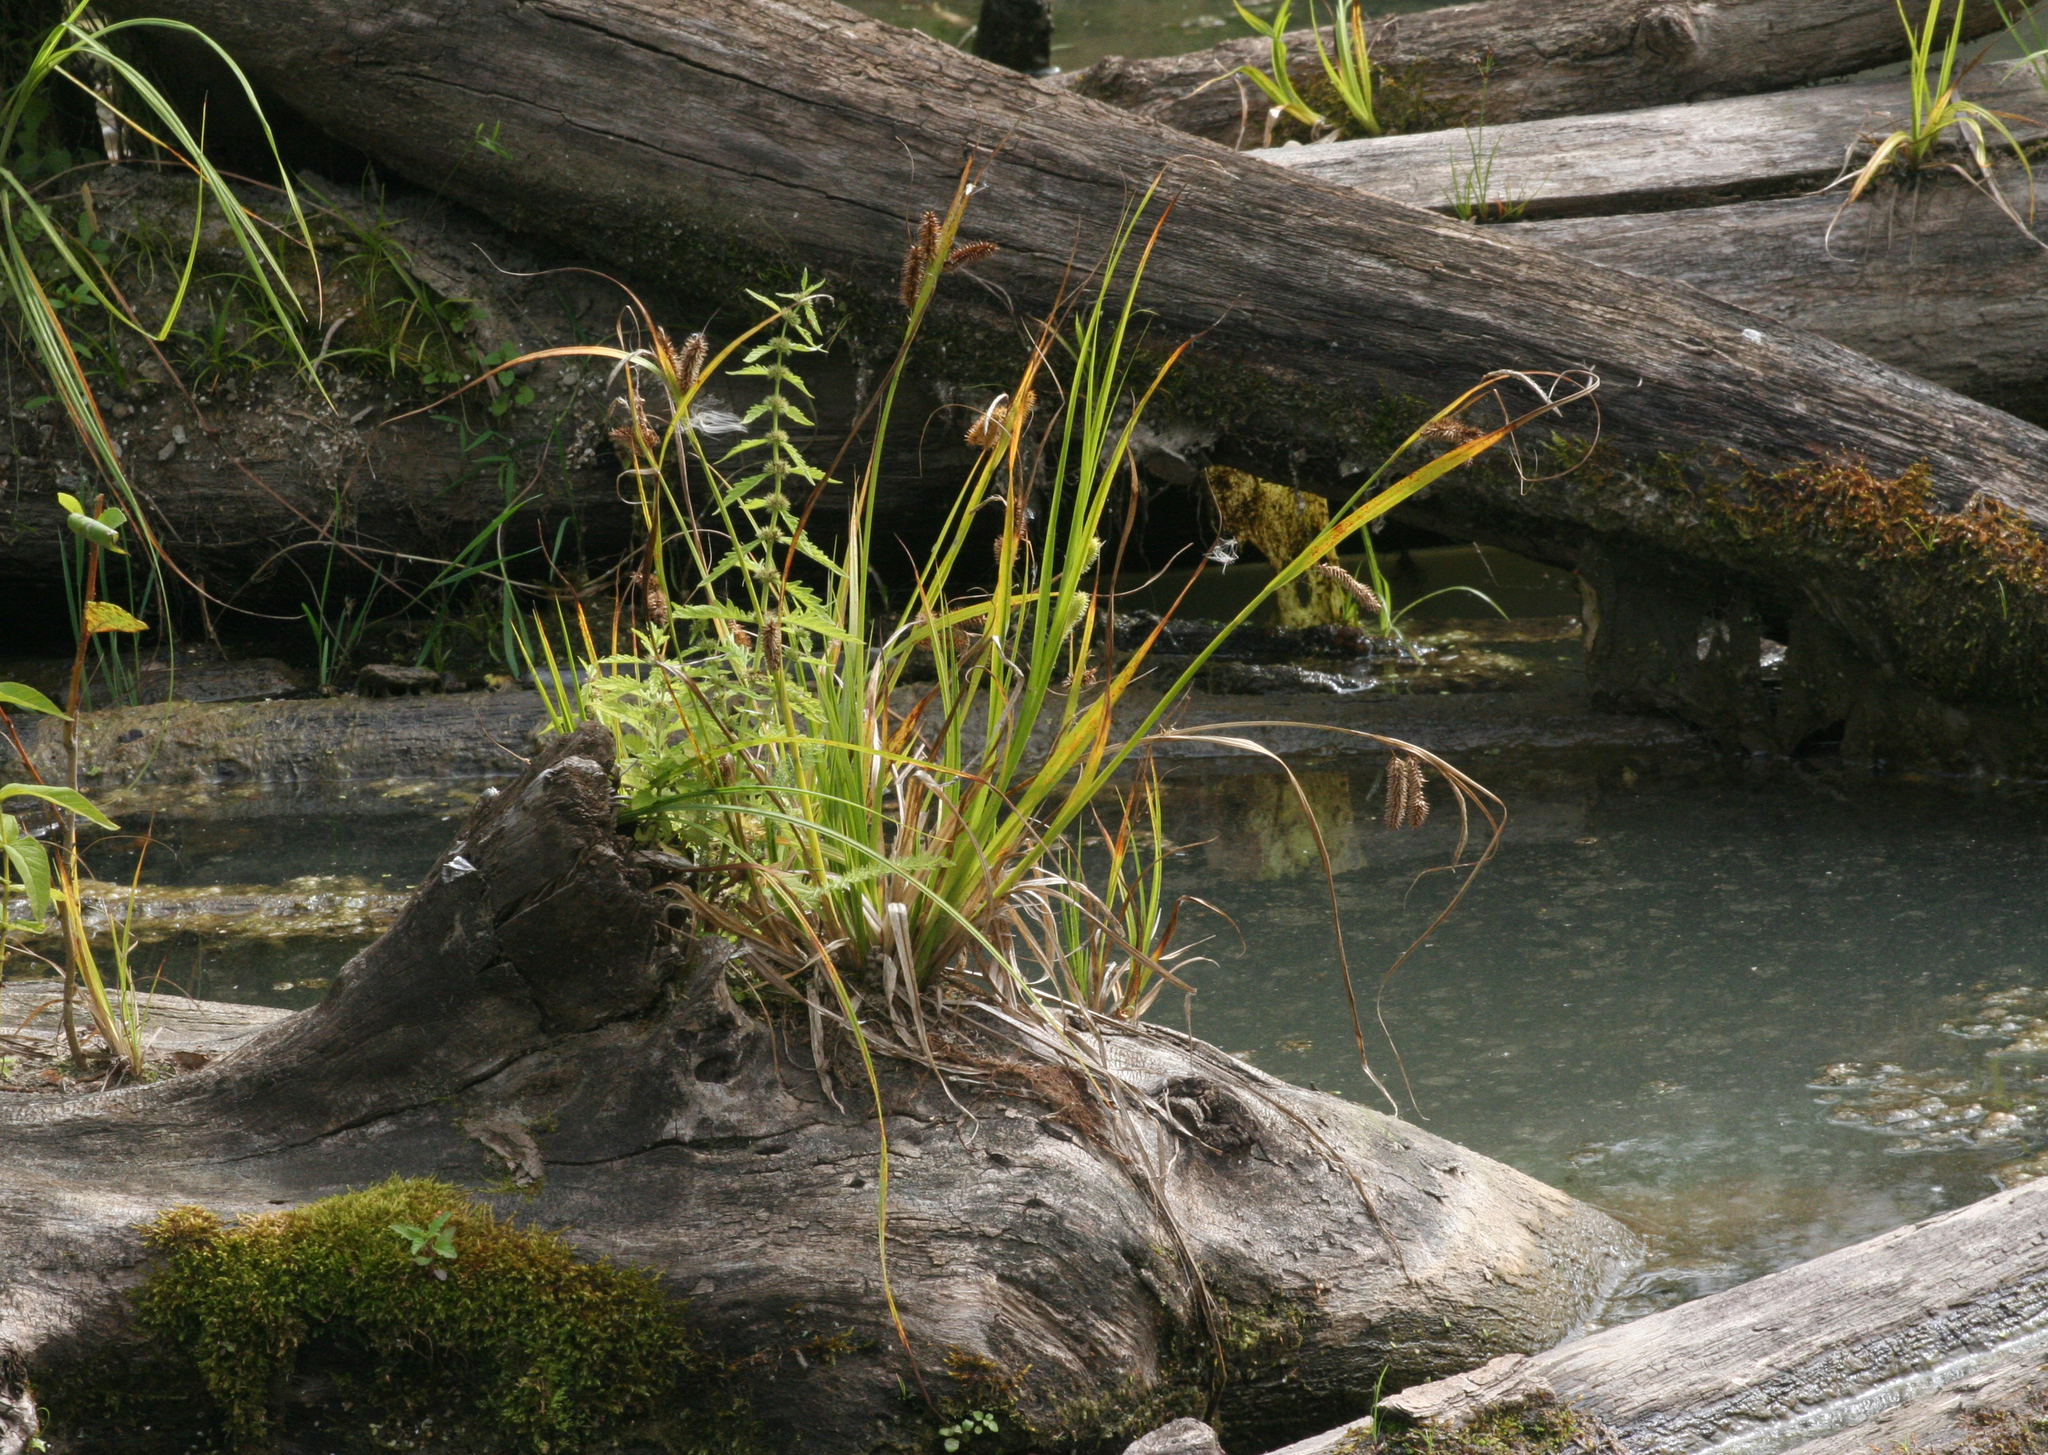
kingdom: Plantae
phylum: Tracheophyta
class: Liliopsida
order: Poales
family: Cyperaceae
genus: Carex
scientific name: Carex pseudocyperus
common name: Cyperus sedge
